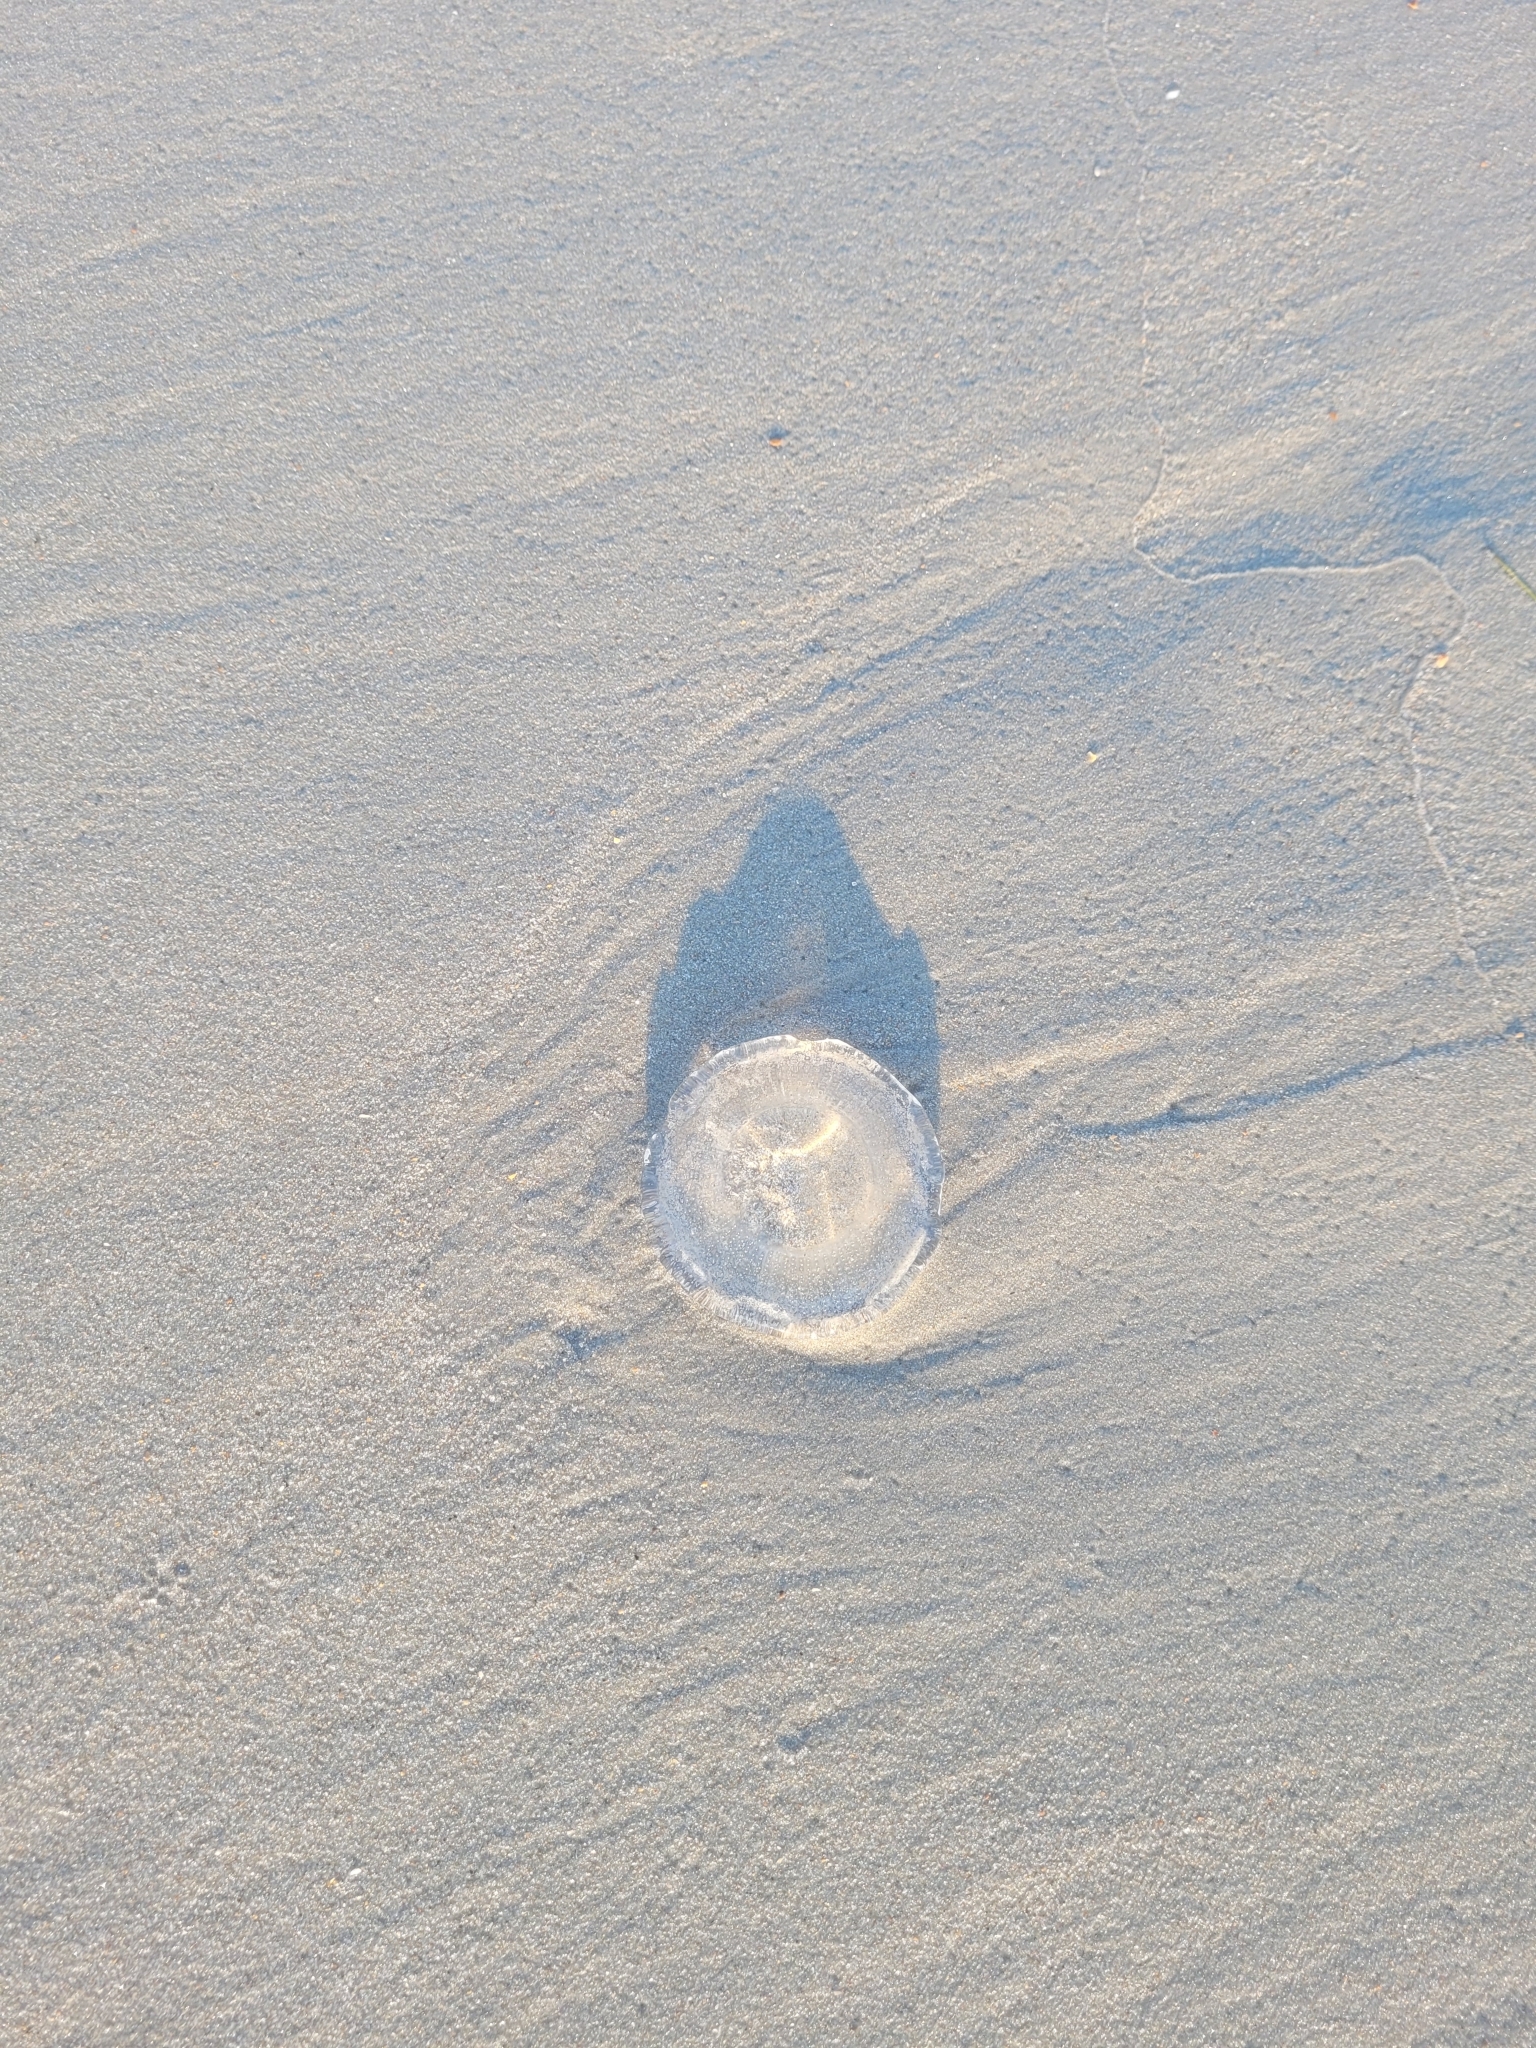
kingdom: Animalia
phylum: Cnidaria
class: Hydrozoa
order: Leptothecata
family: Aequoreidae
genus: Rhacostoma
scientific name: Rhacostoma atlanticum
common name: Lined water jelly
